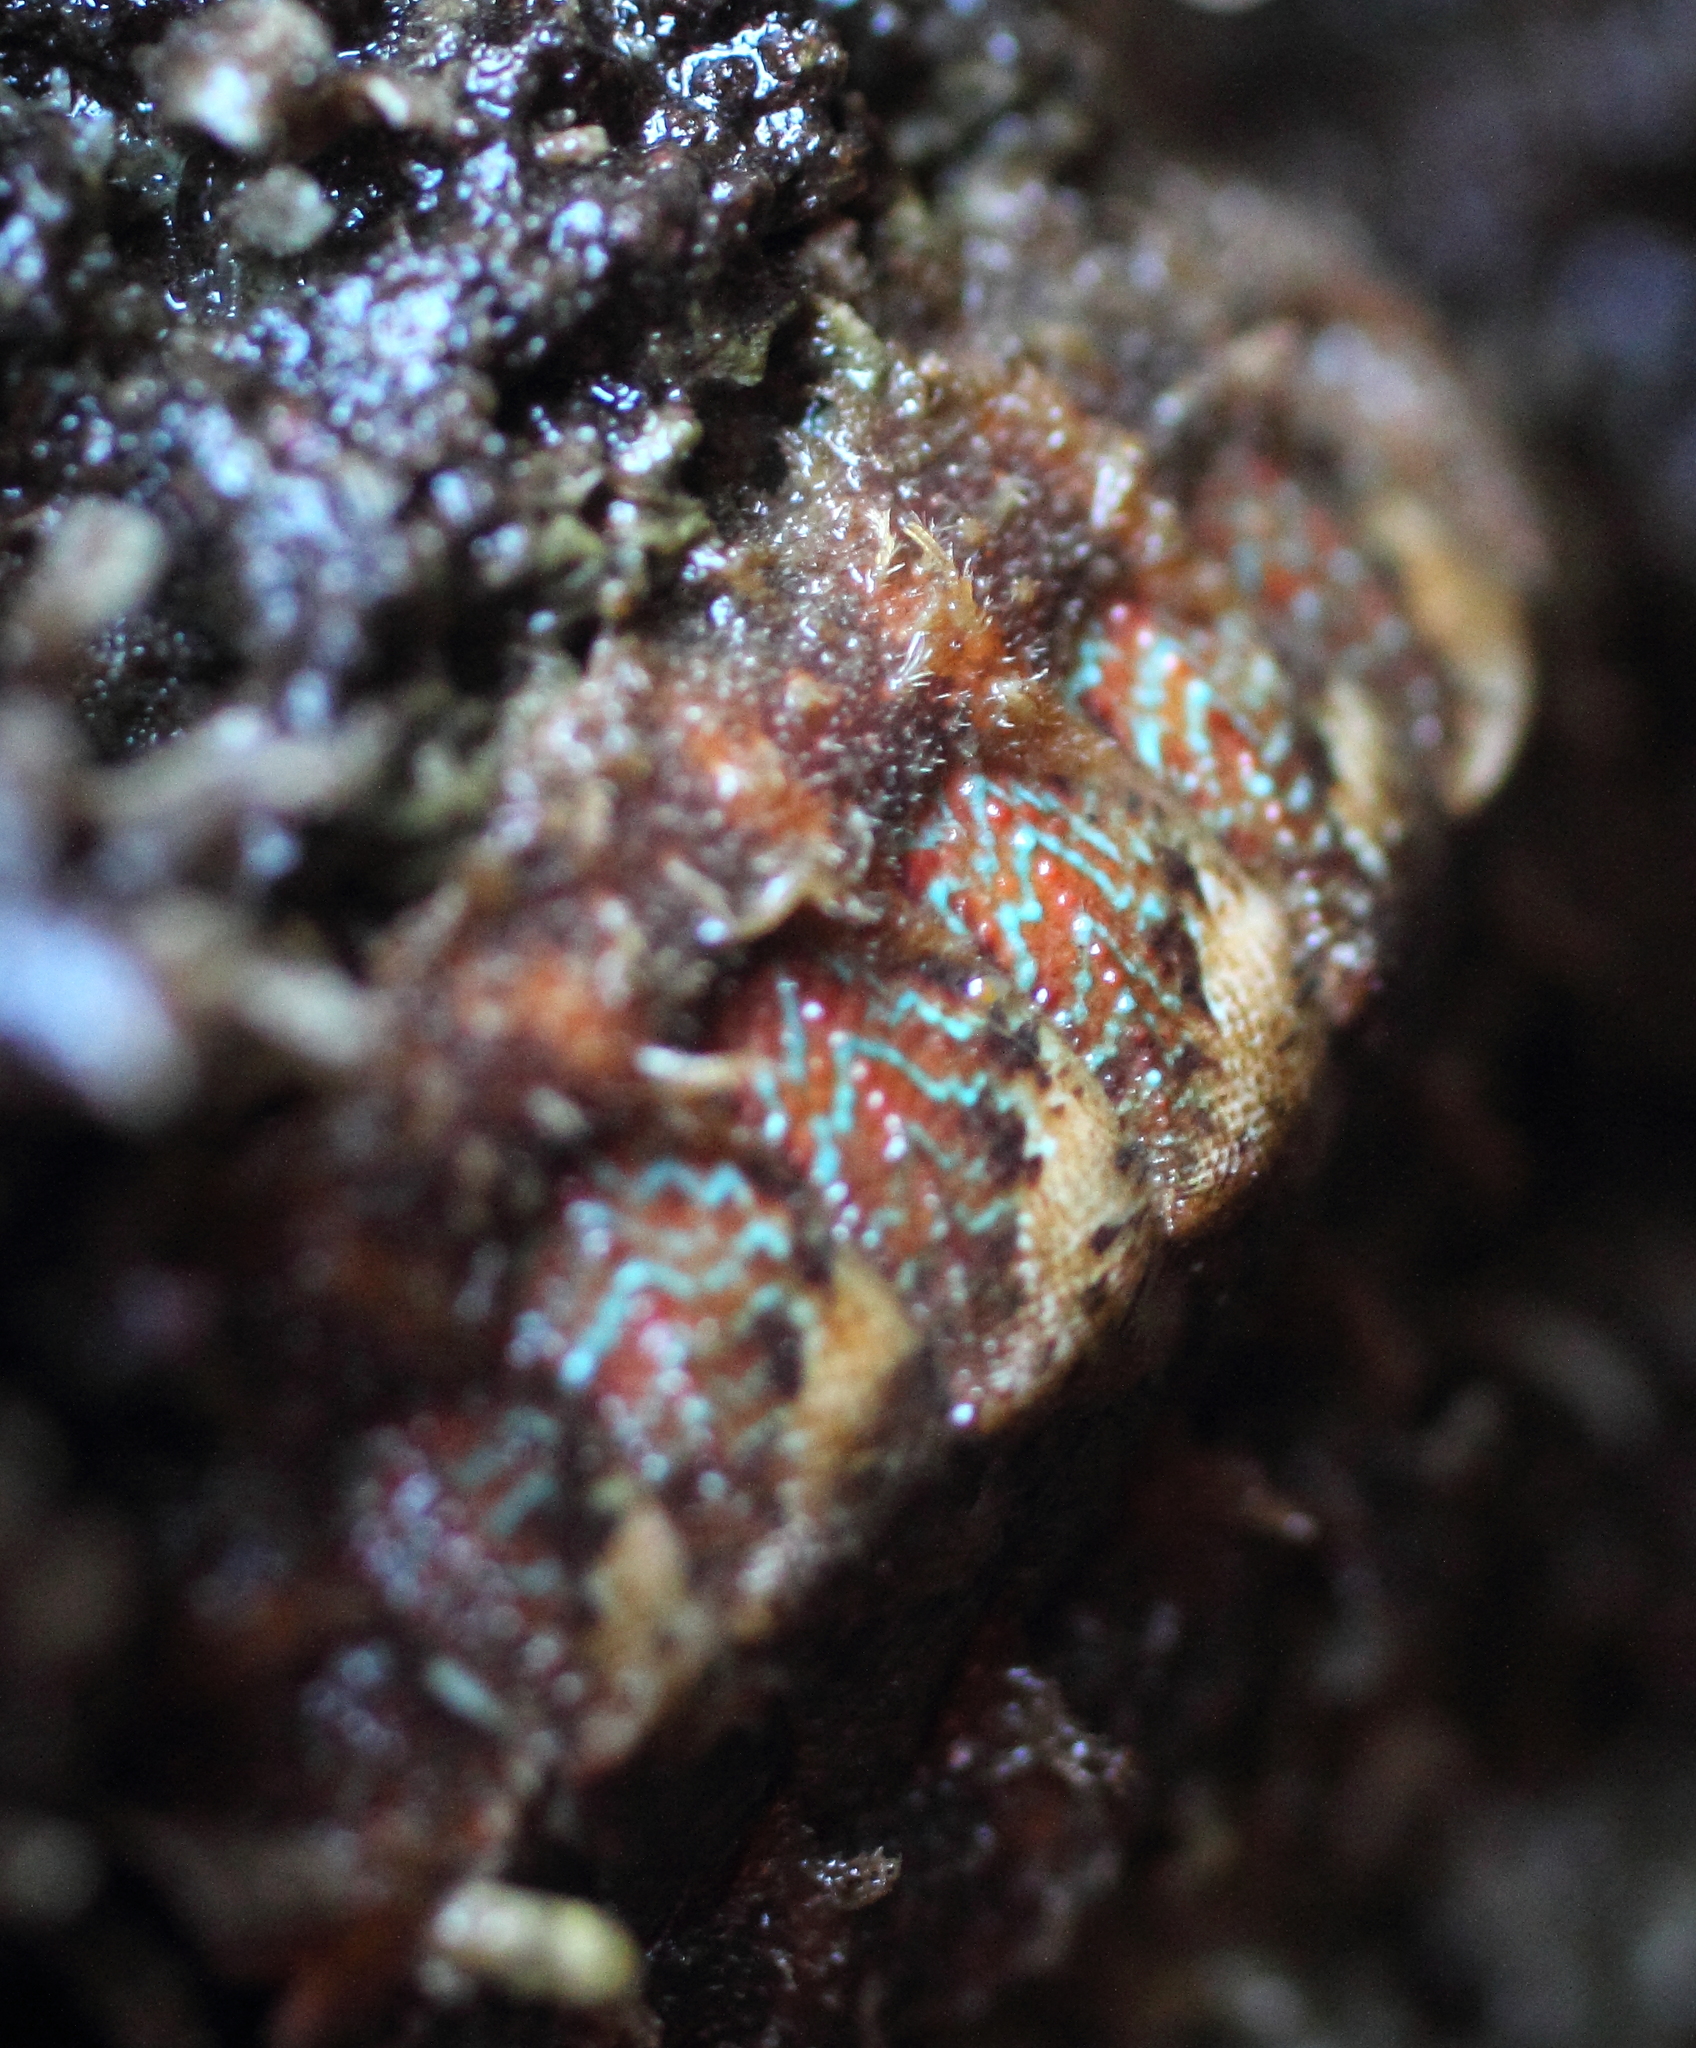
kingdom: Animalia
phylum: Mollusca
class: Polyplacophora
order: Chitonida
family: Mopaliidae
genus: Mopalia
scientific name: Mopalia spectabilis
